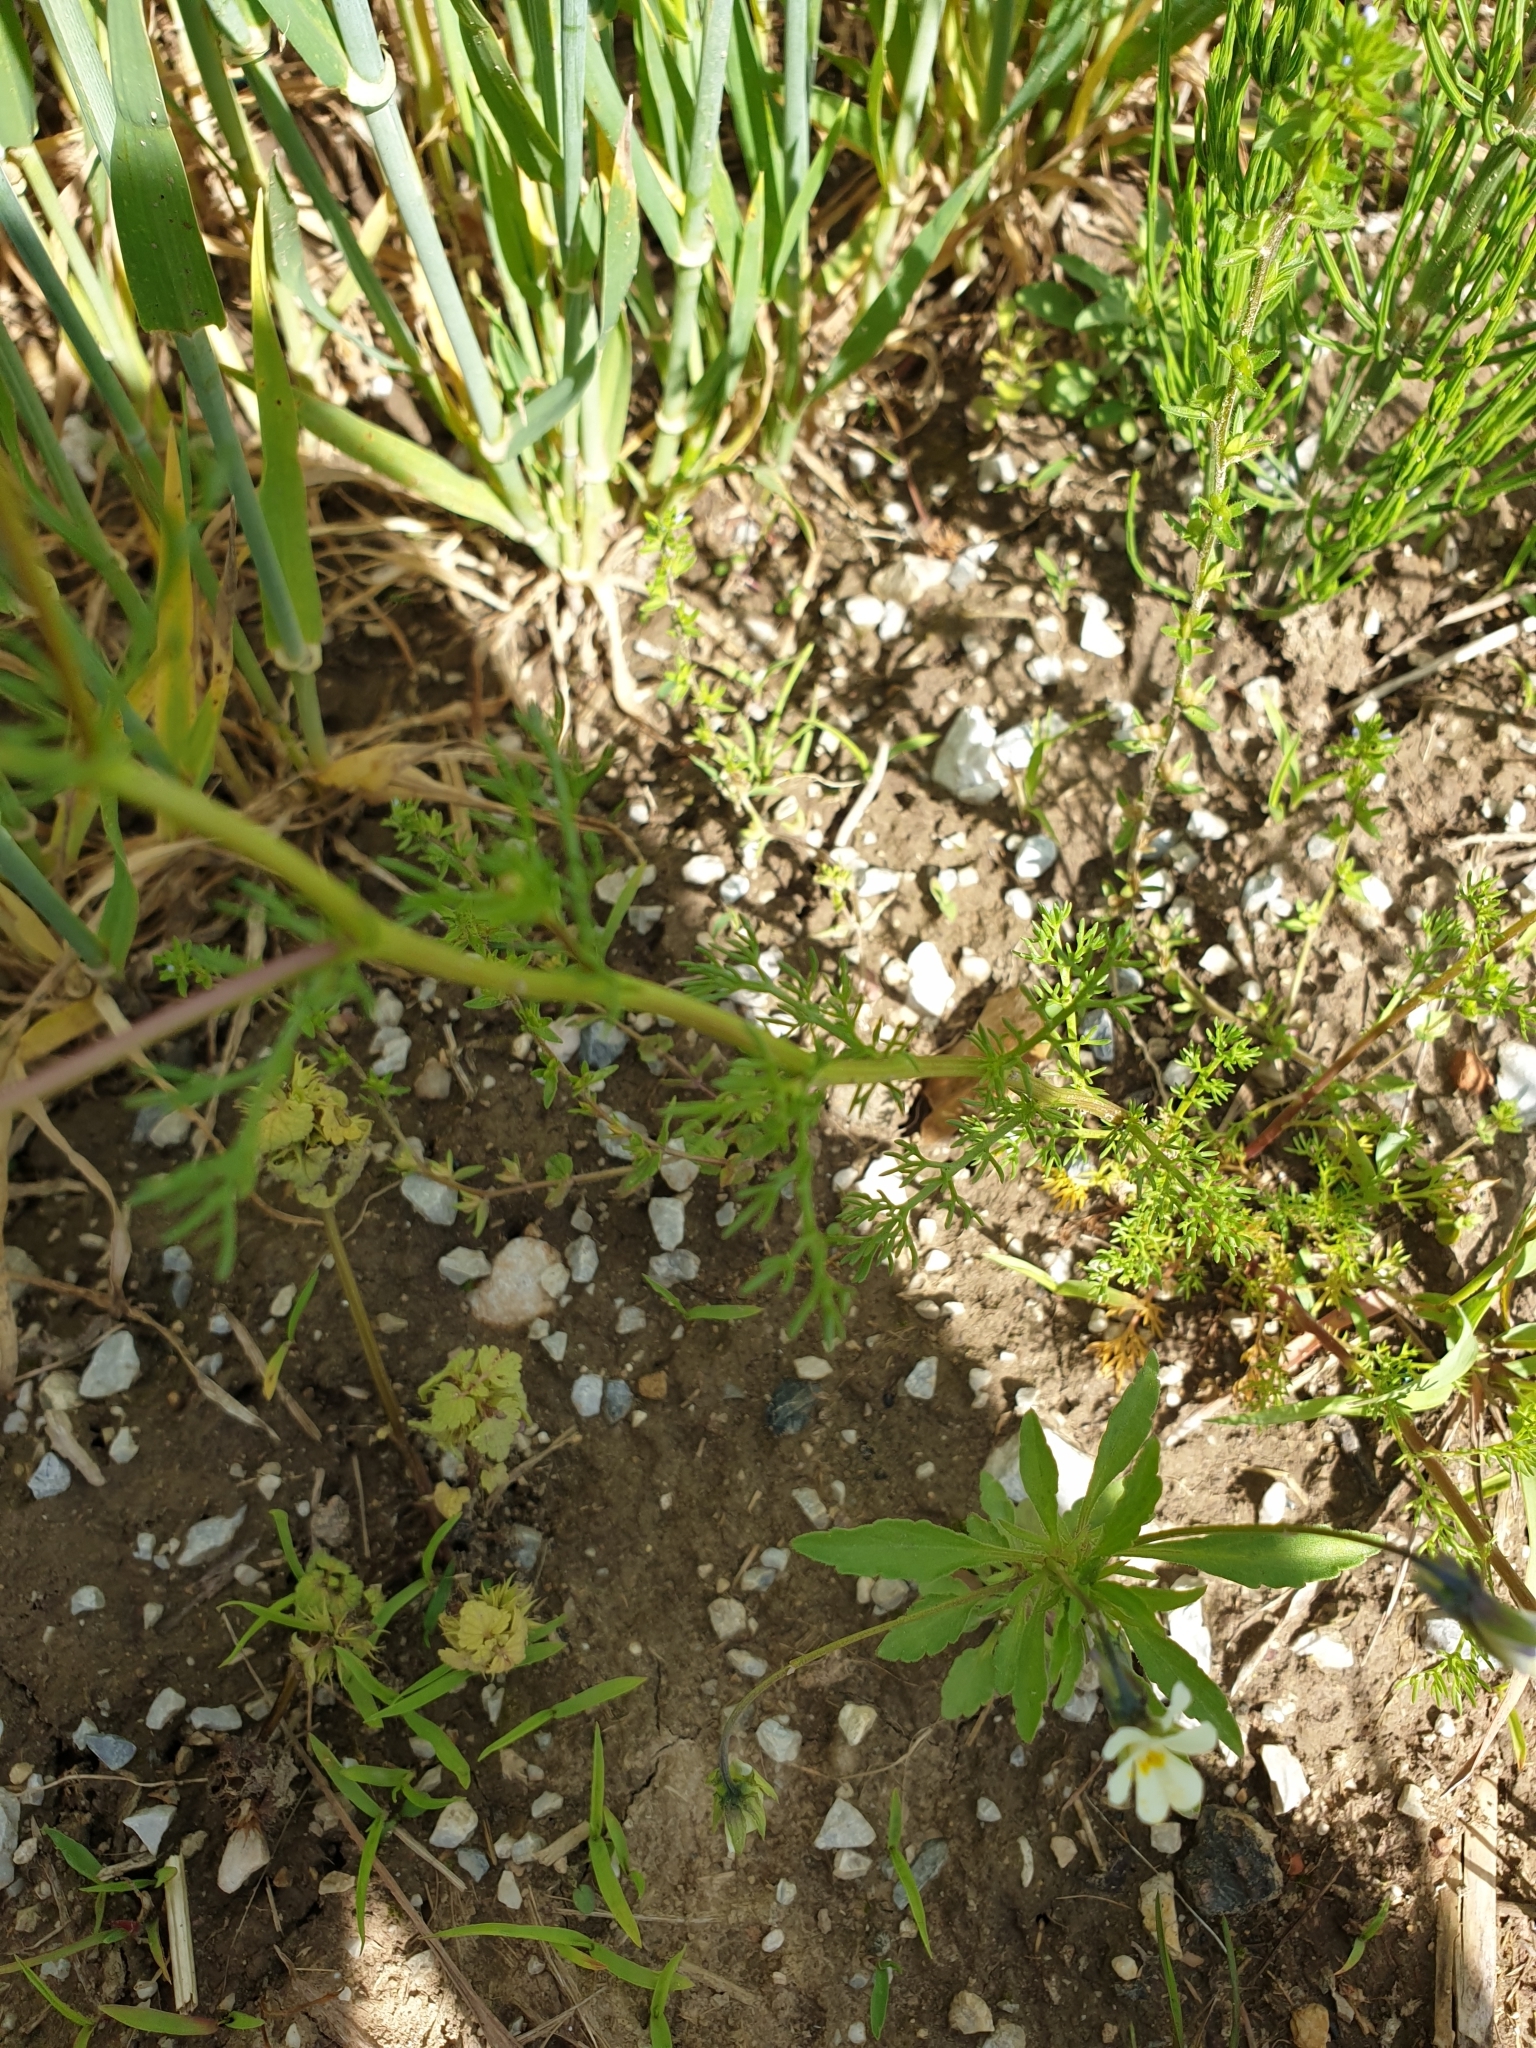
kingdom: Plantae
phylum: Tracheophyta
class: Magnoliopsida
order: Asterales
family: Asteraceae
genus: Matricaria
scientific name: Matricaria chamomilla
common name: Scented mayweed
